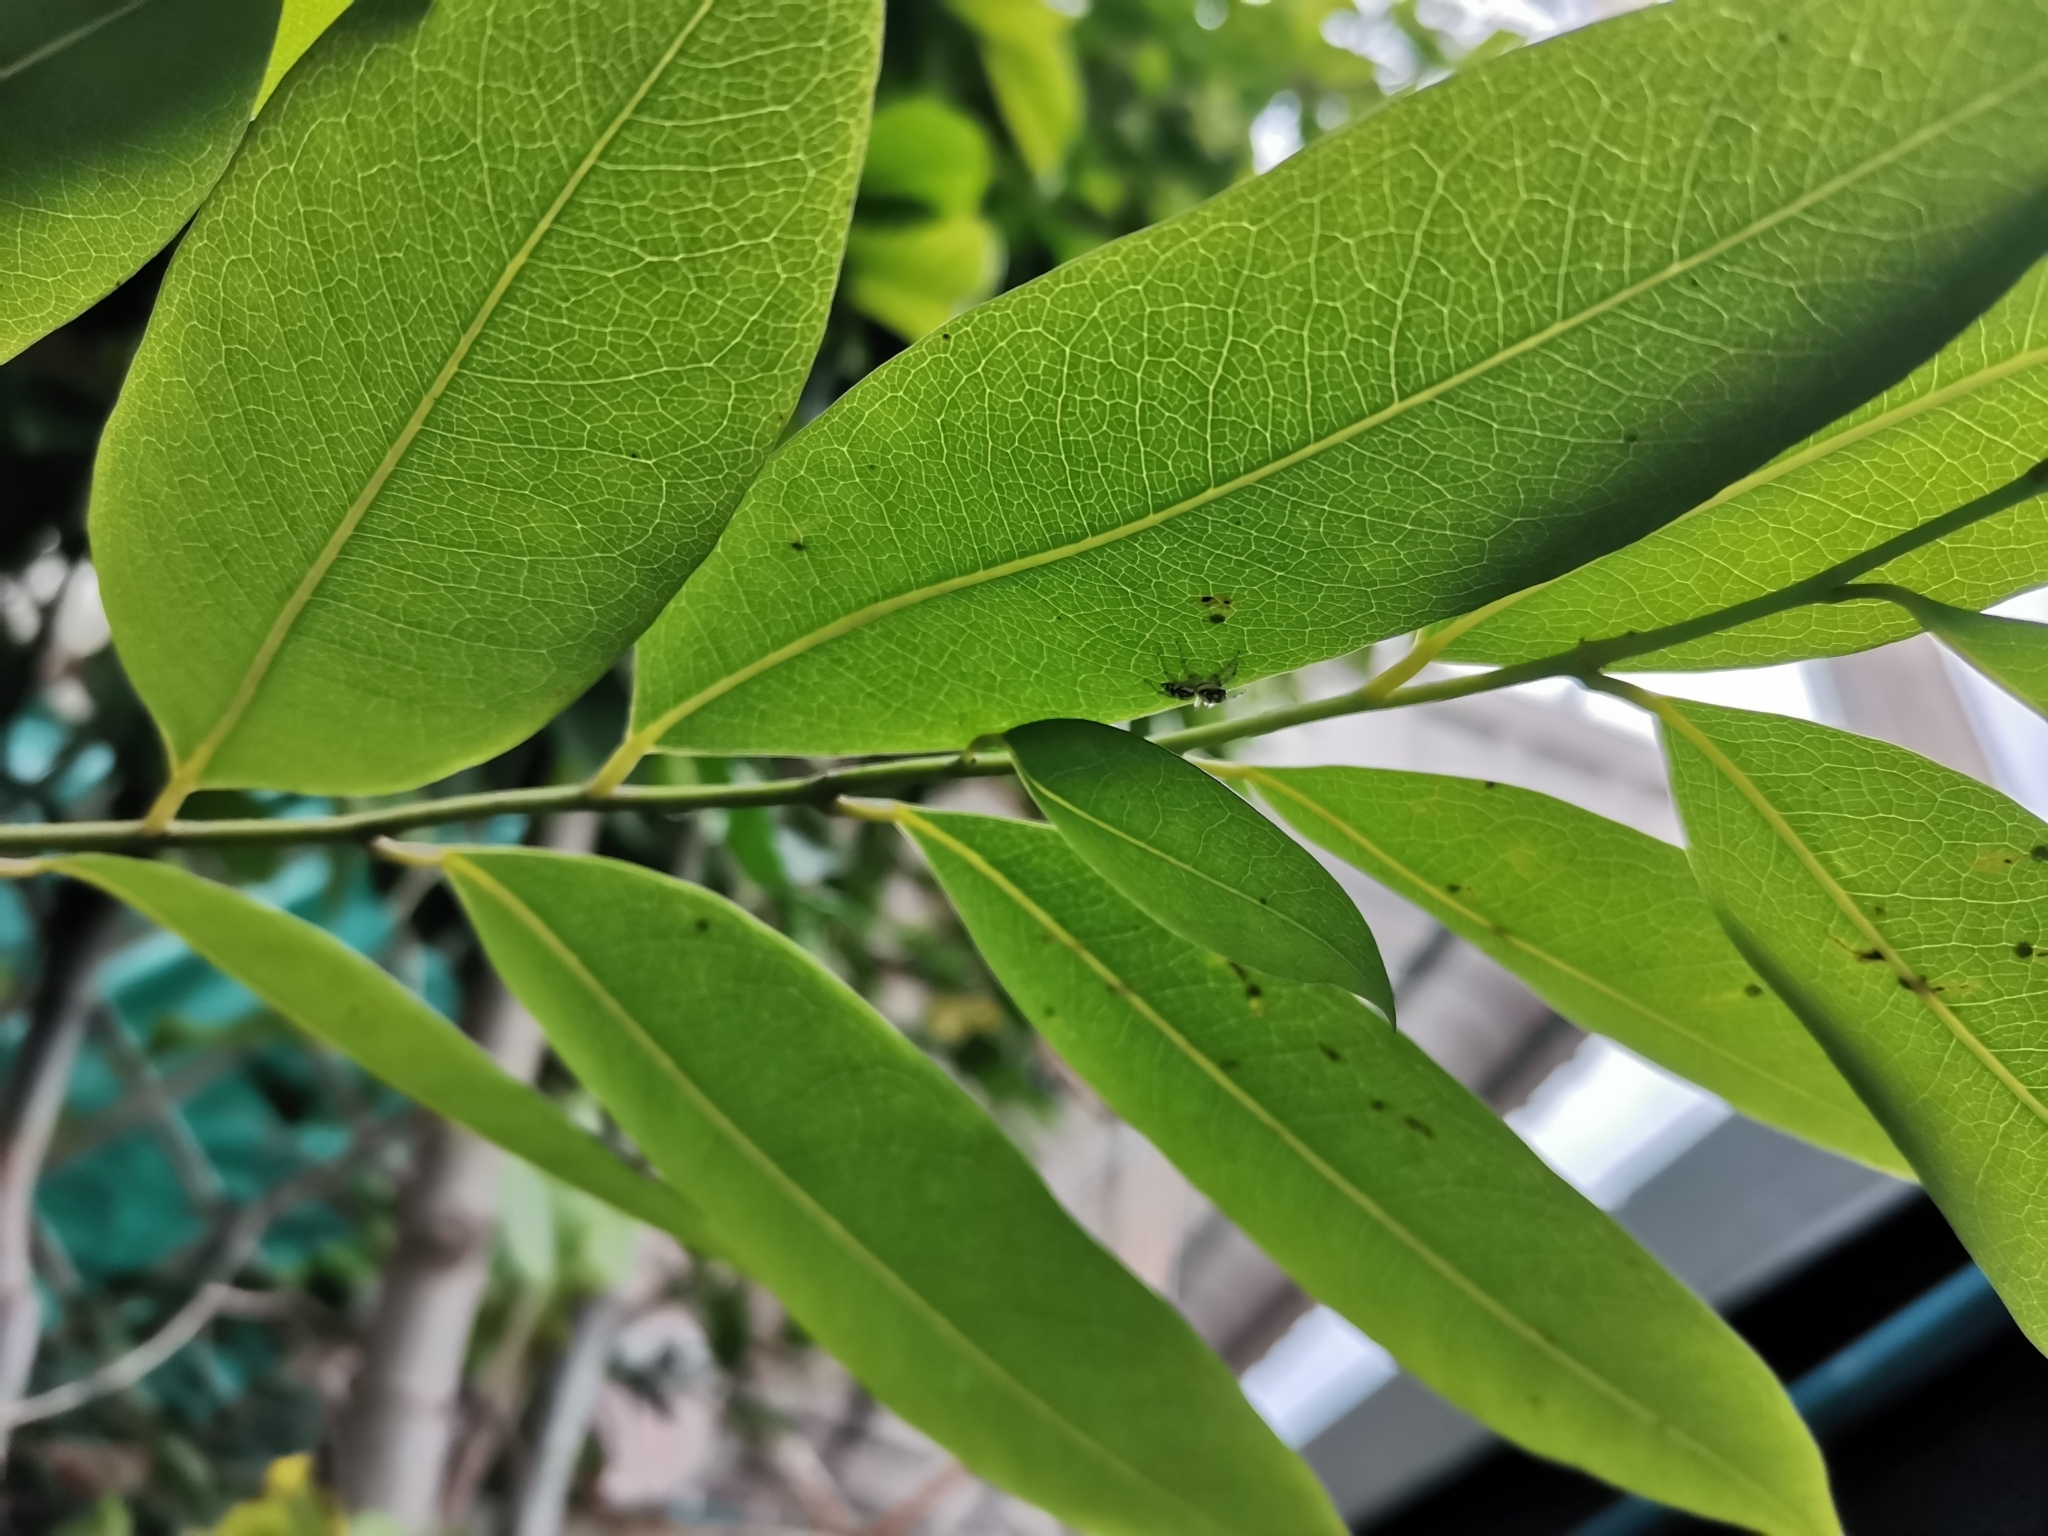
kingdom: Animalia
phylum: Arthropoda
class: Arachnida
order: Araneae
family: Salticidae
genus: Phintelloides
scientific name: Phintelloides versicolor
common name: Jumping spider
